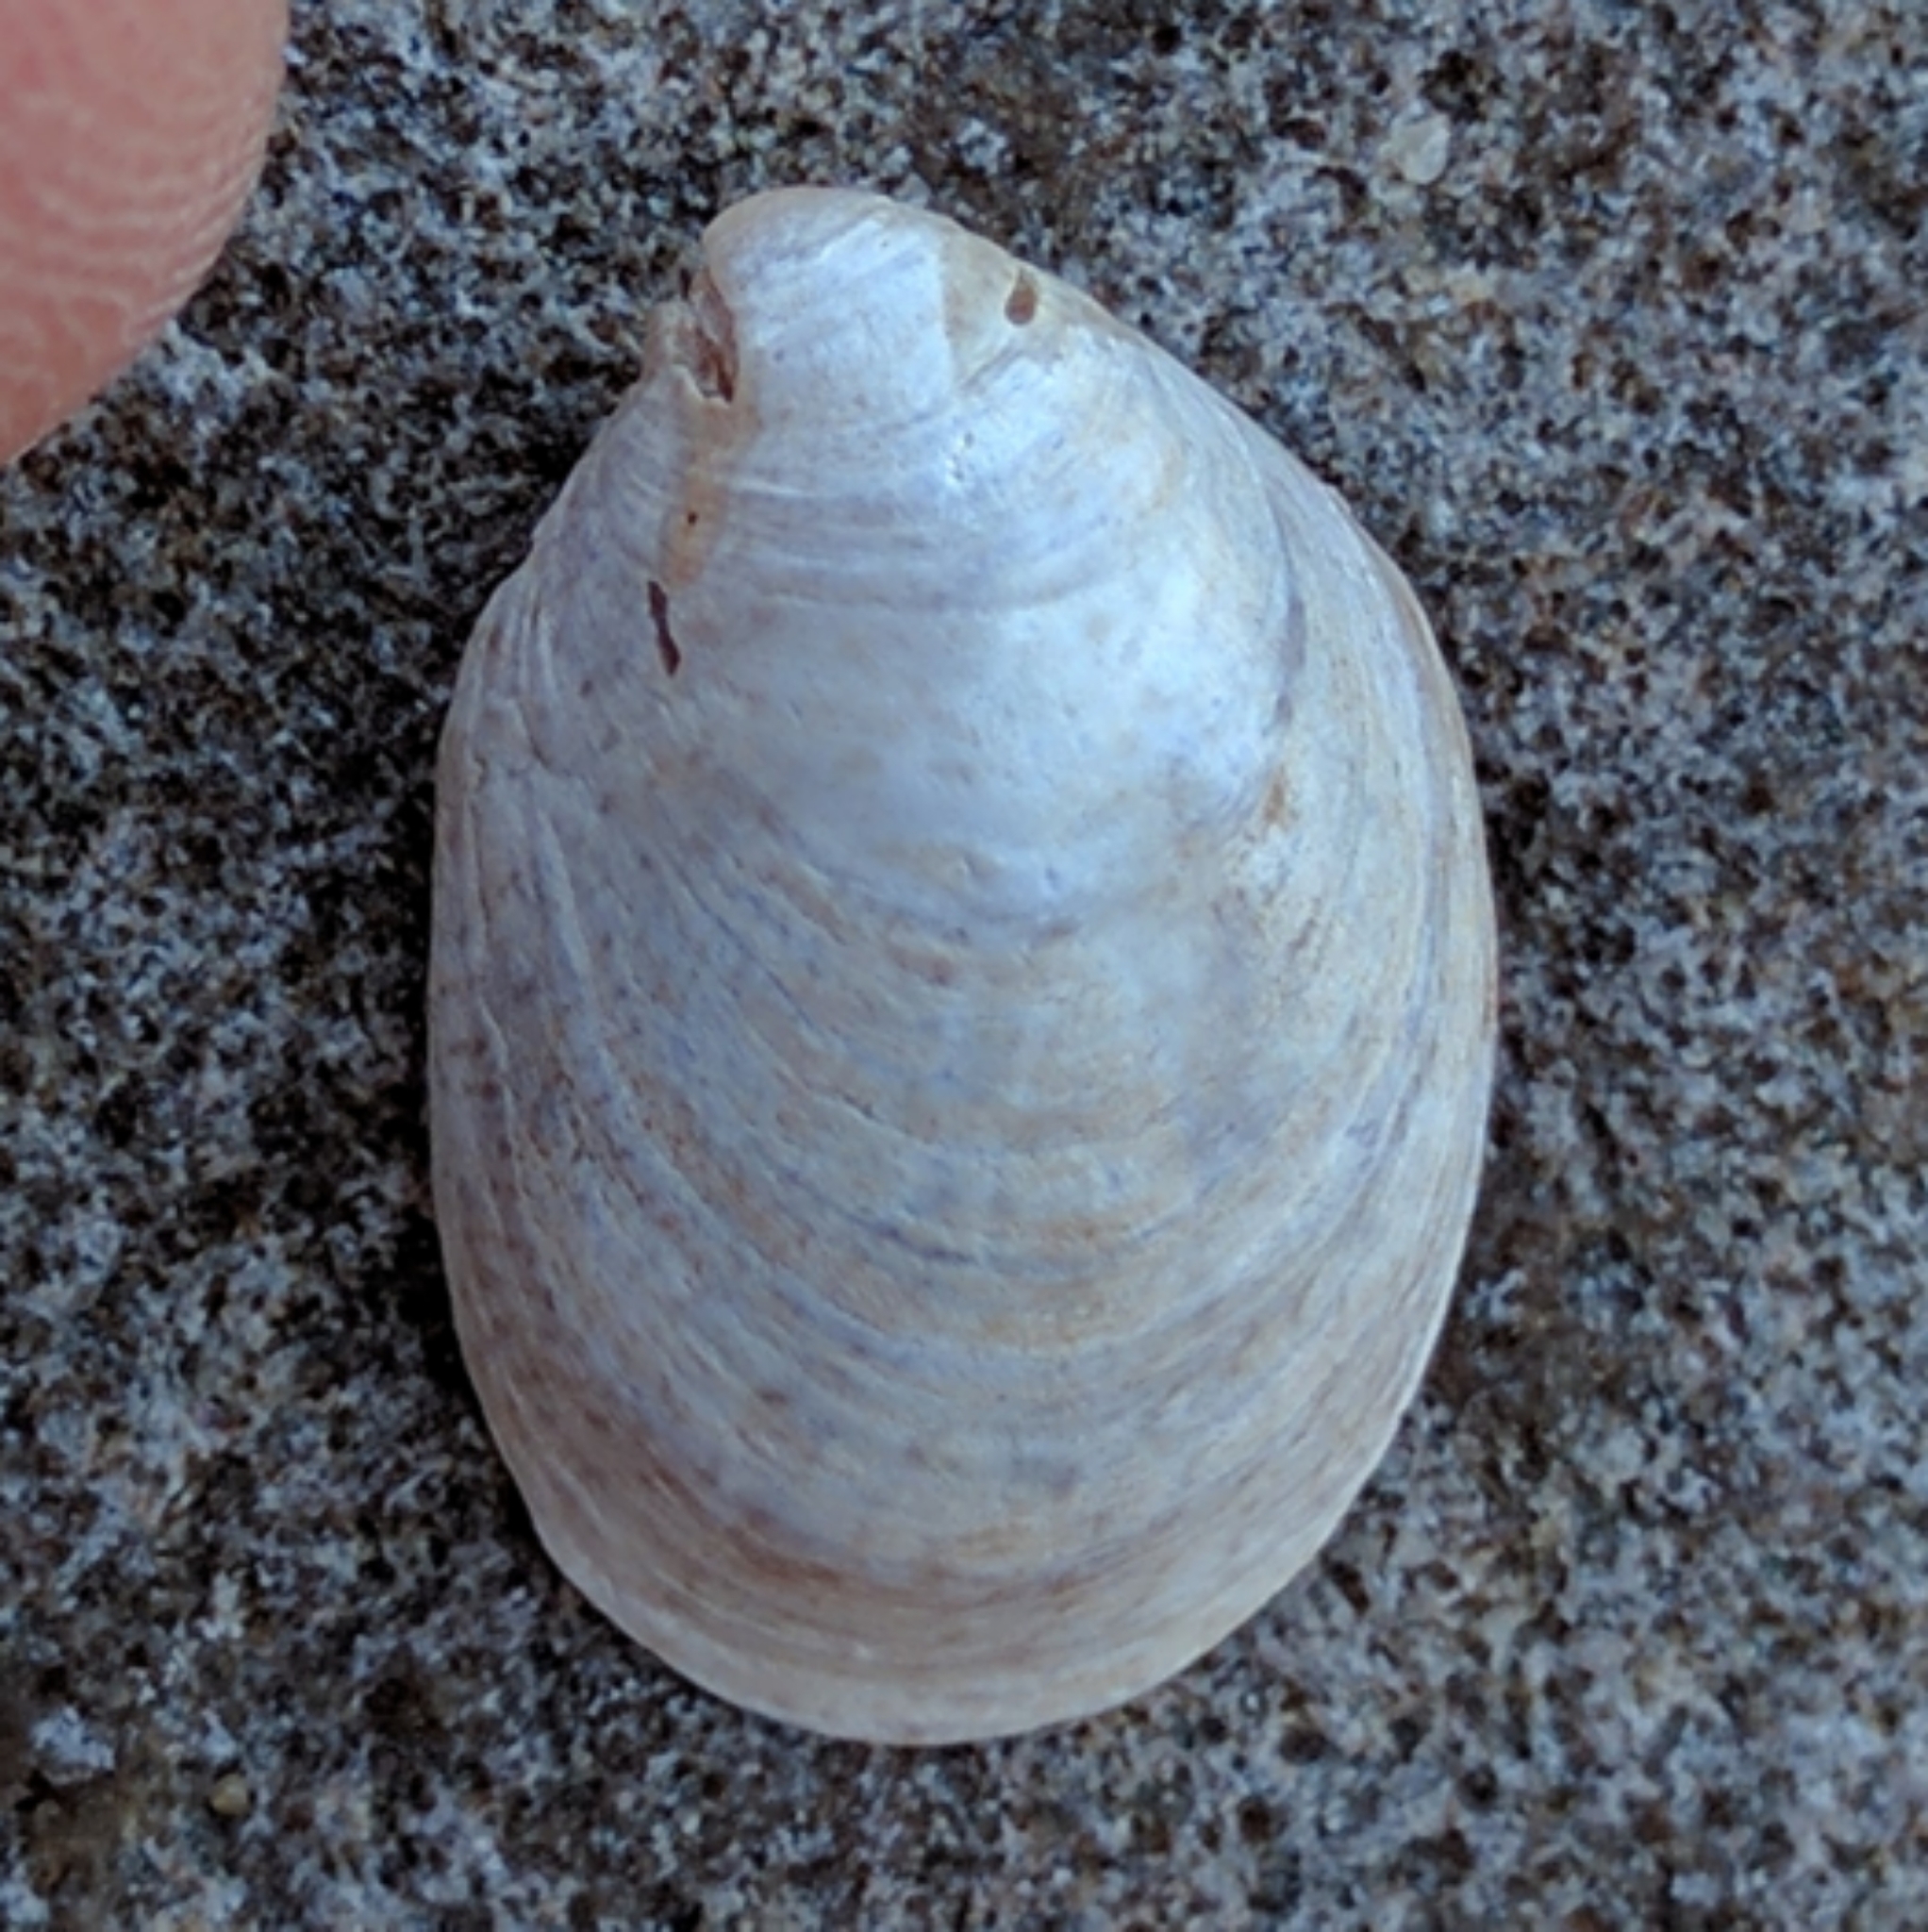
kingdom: Animalia
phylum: Mollusca
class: Gastropoda
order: Littorinimorpha
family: Calyptraeidae
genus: Crepidula
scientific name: Crepidula fornicata
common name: Slipper limpet
